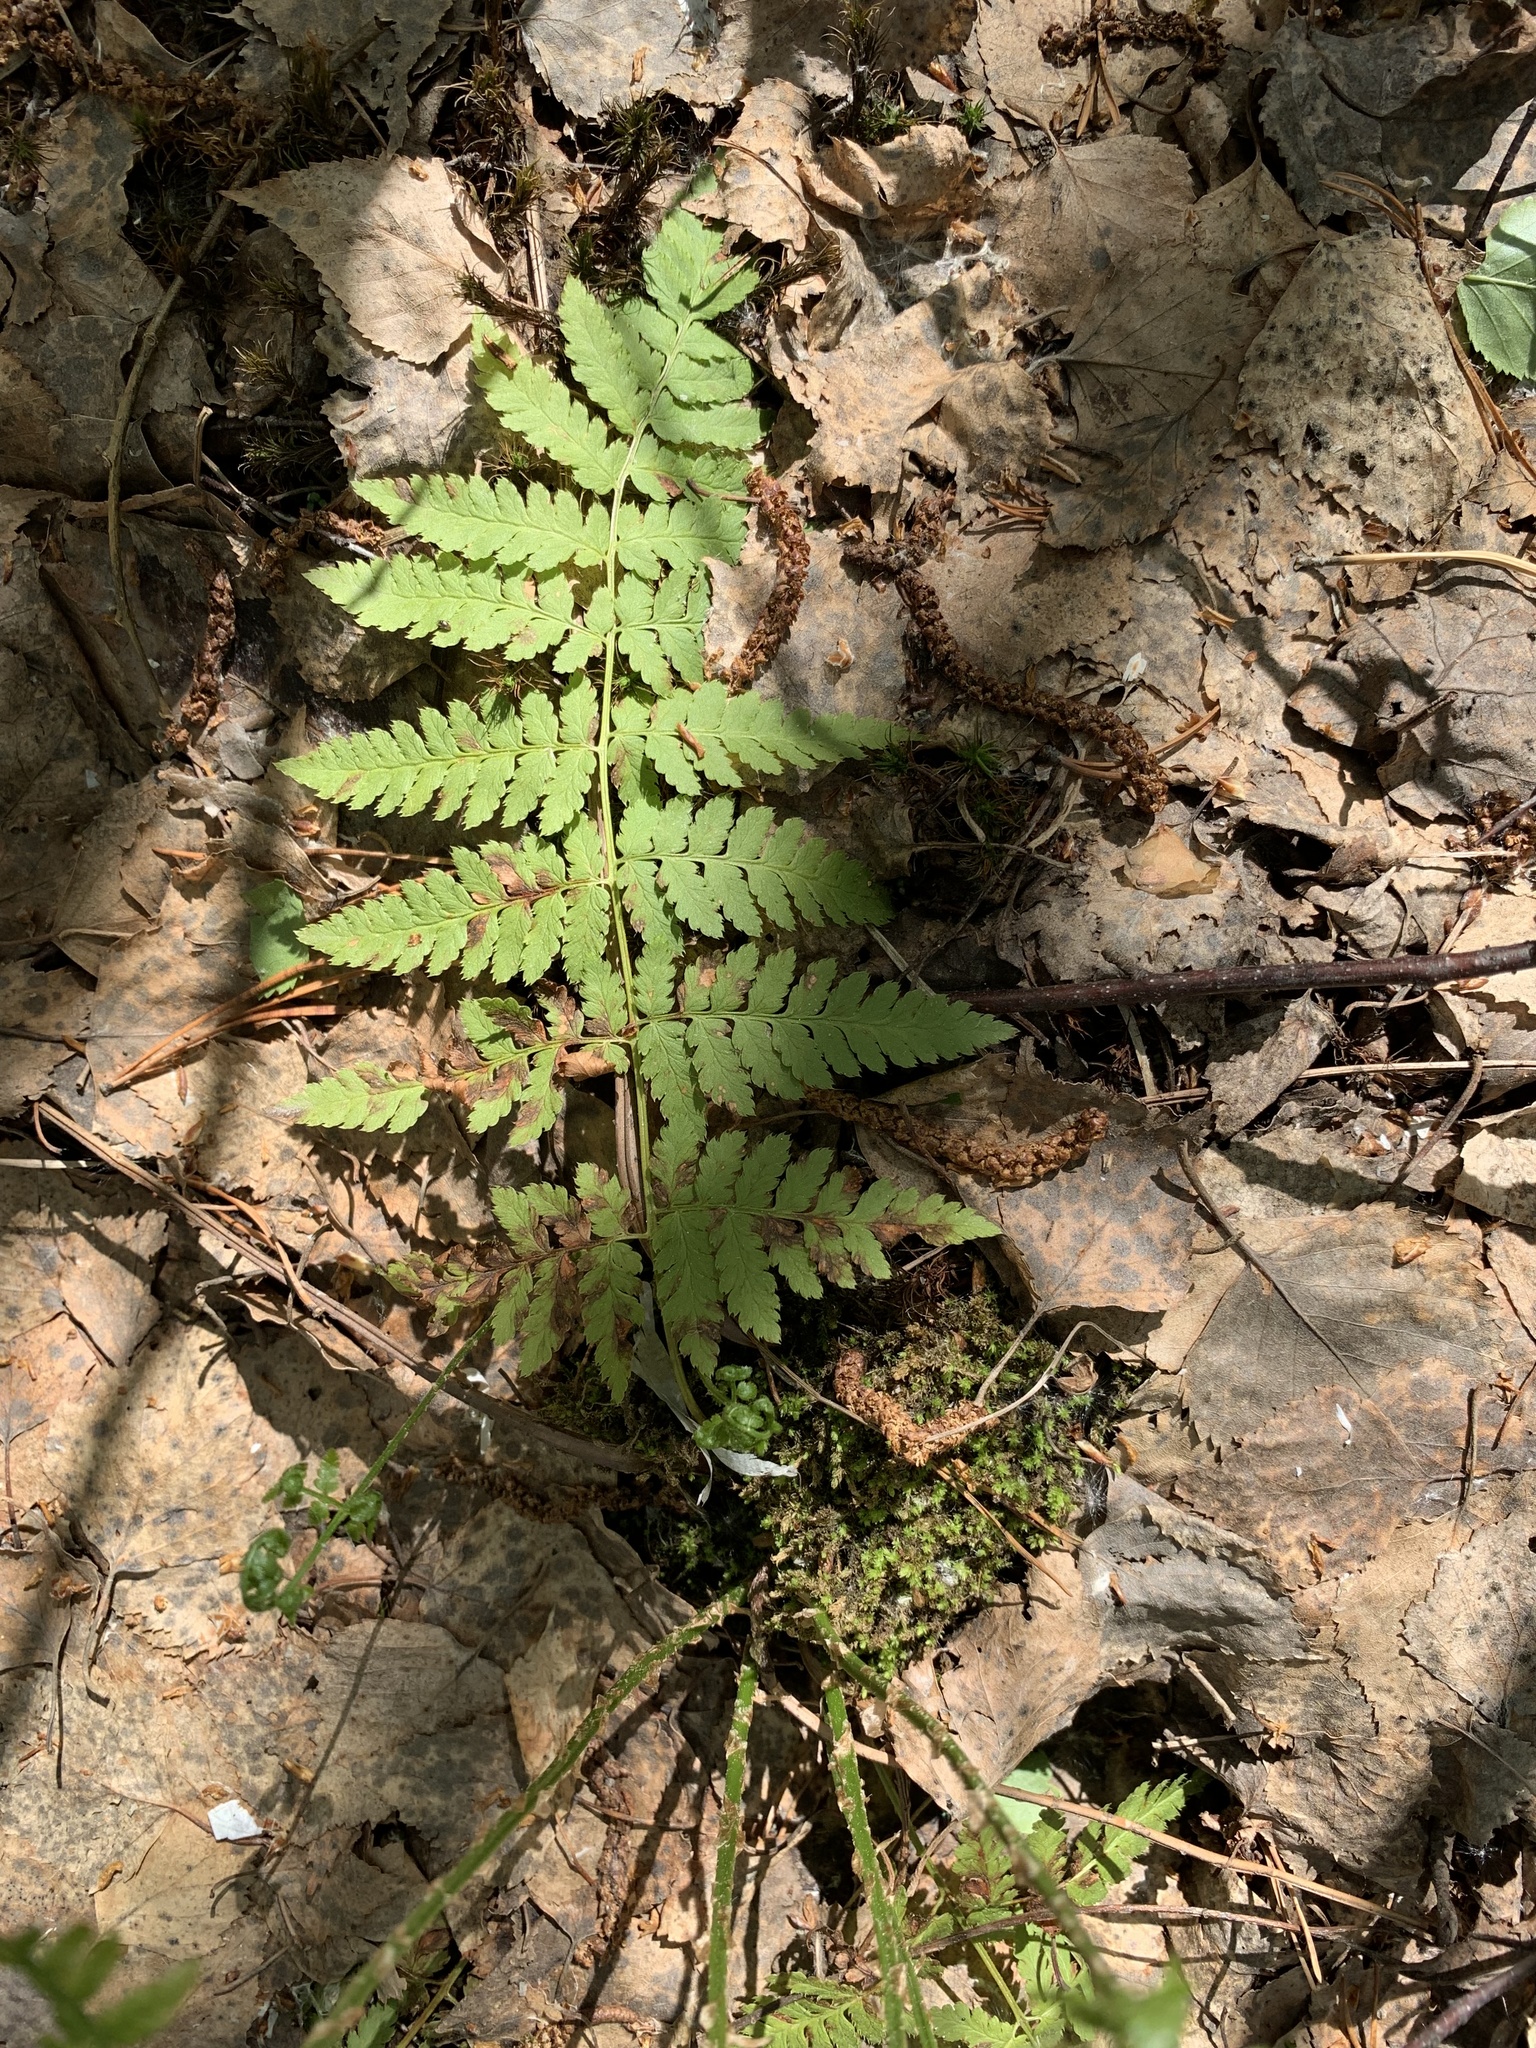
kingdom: Plantae
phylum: Tracheophyta
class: Polypodiopsida
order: Polypodiales
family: Dryopteridaceae
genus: Dryopteris
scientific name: Dryopteris carthusiana
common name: Narrow buckler-fern
